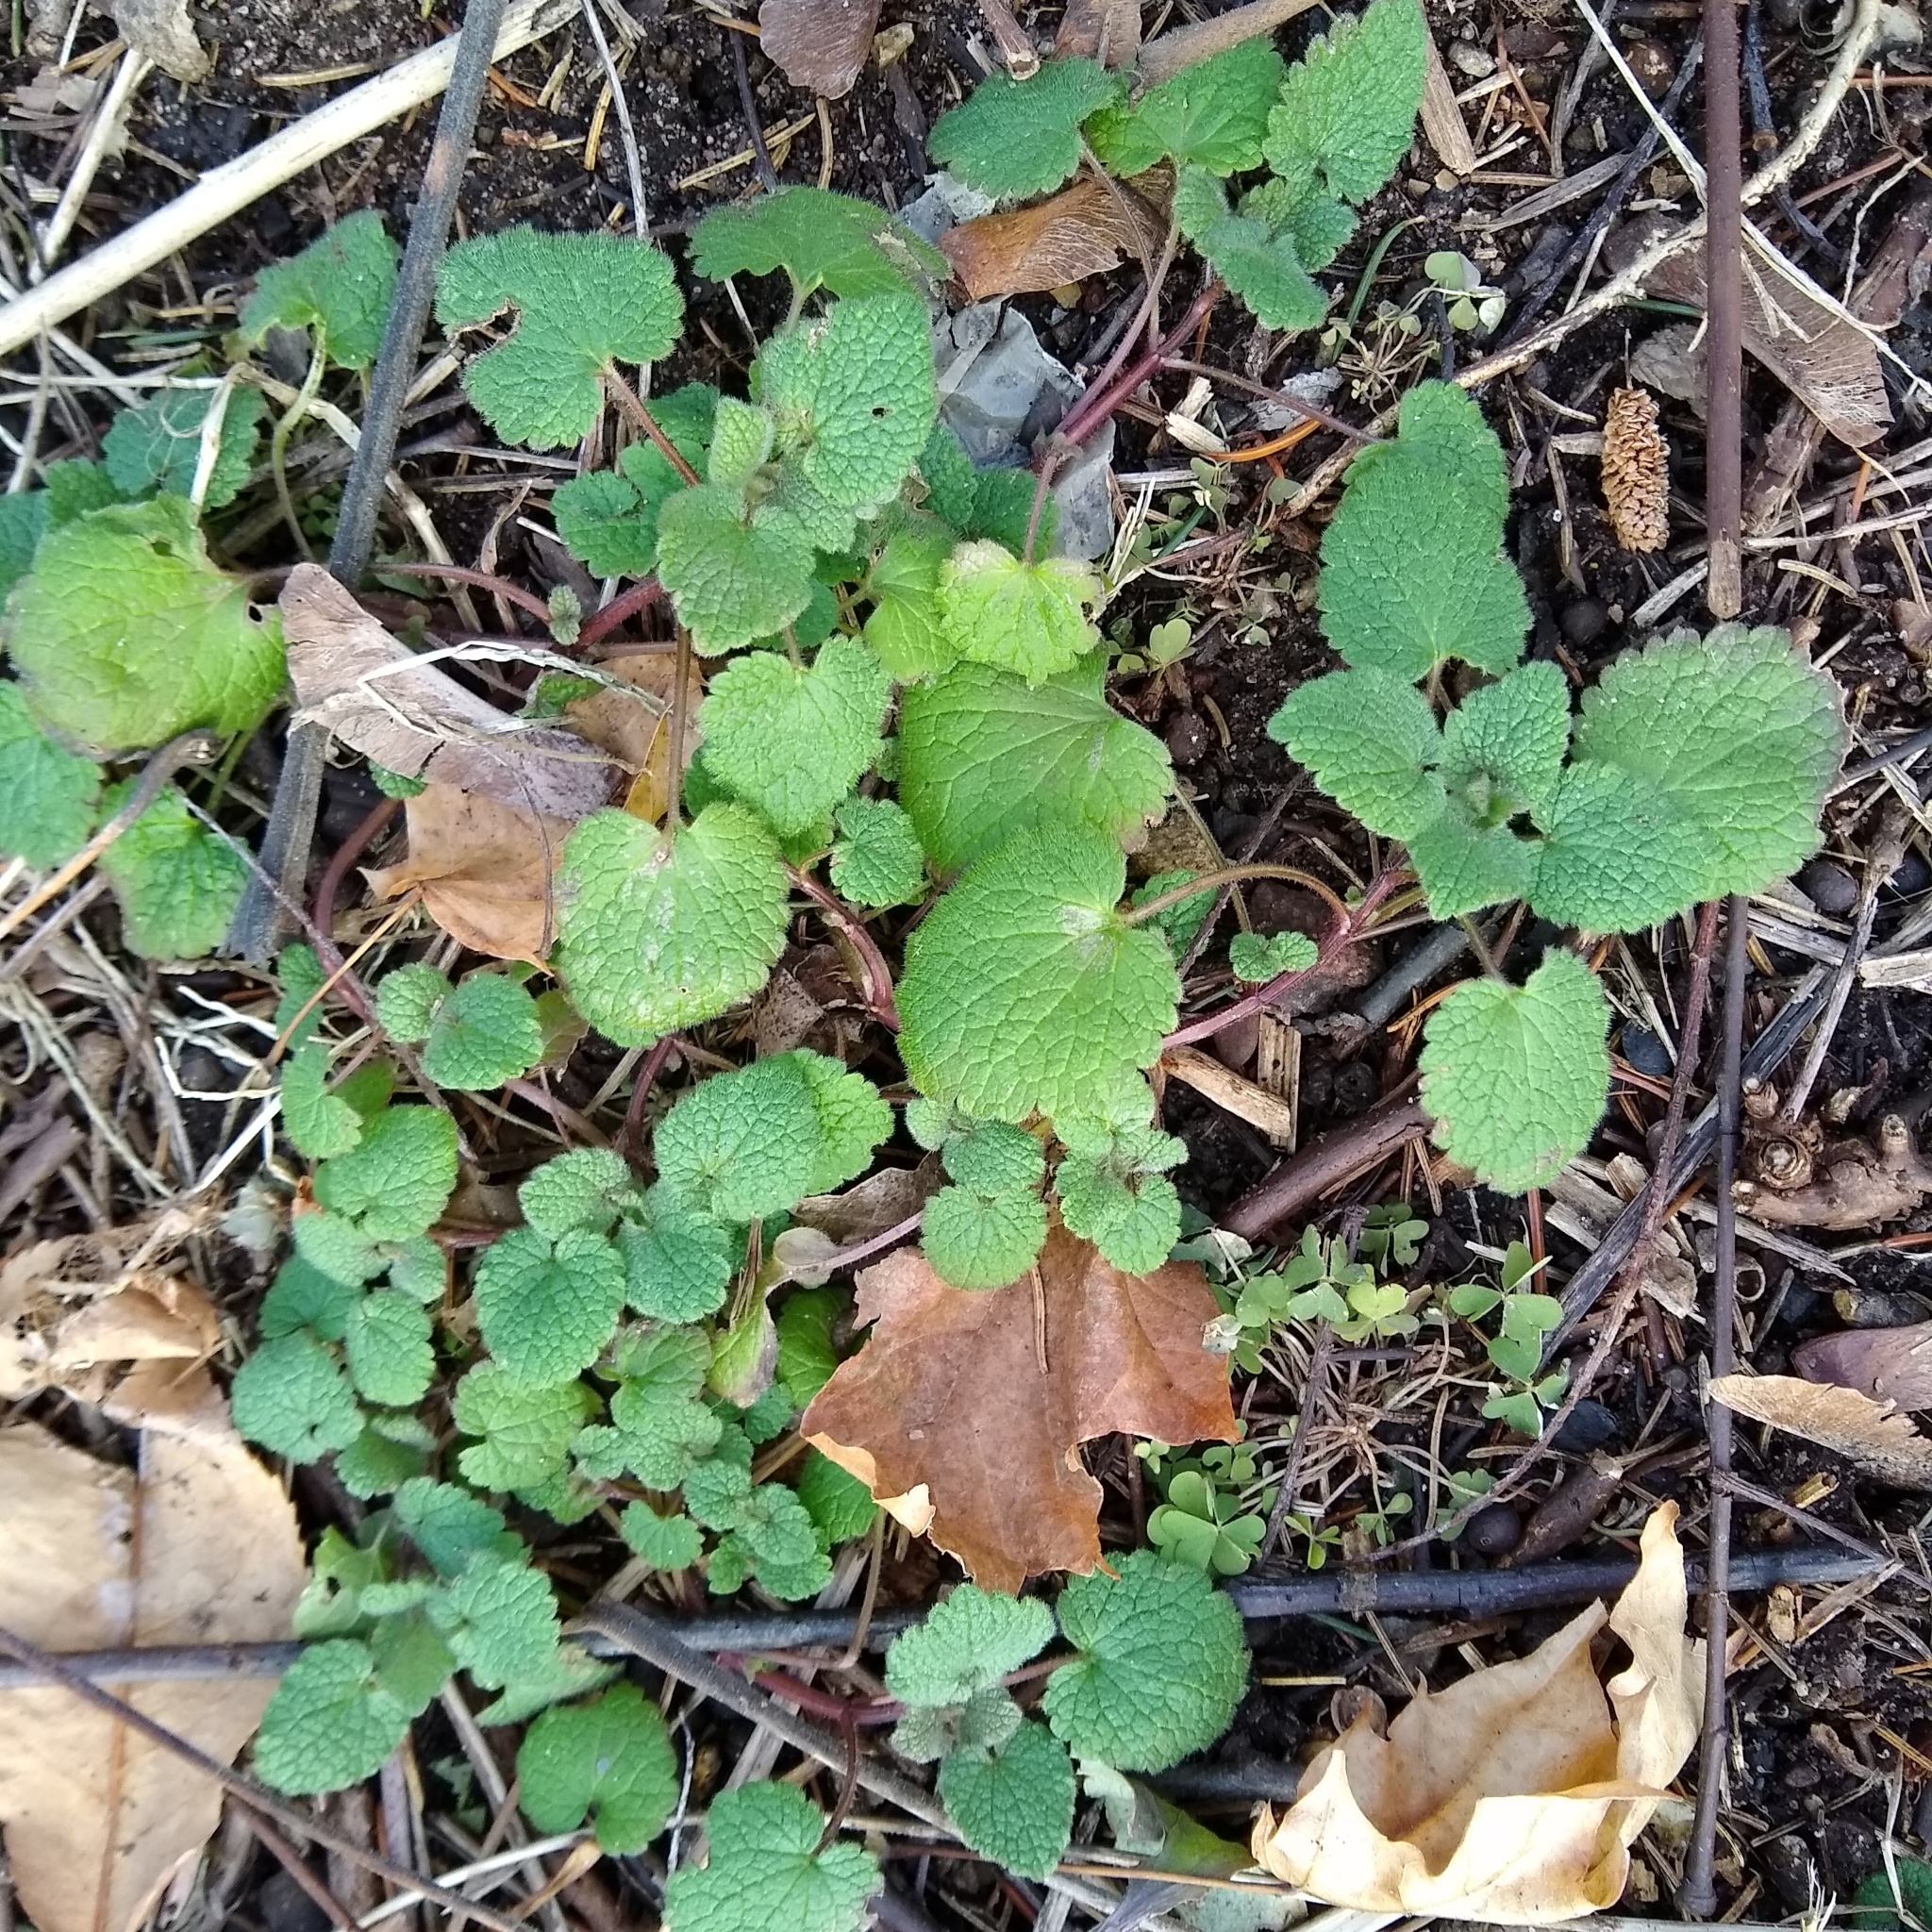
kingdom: Plantae
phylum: Tracheophyta
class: Magnoliopsida
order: Lamiales
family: Lamiaceae
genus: Lamium
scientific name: Lamium purpureum
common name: Red dead-nettle
